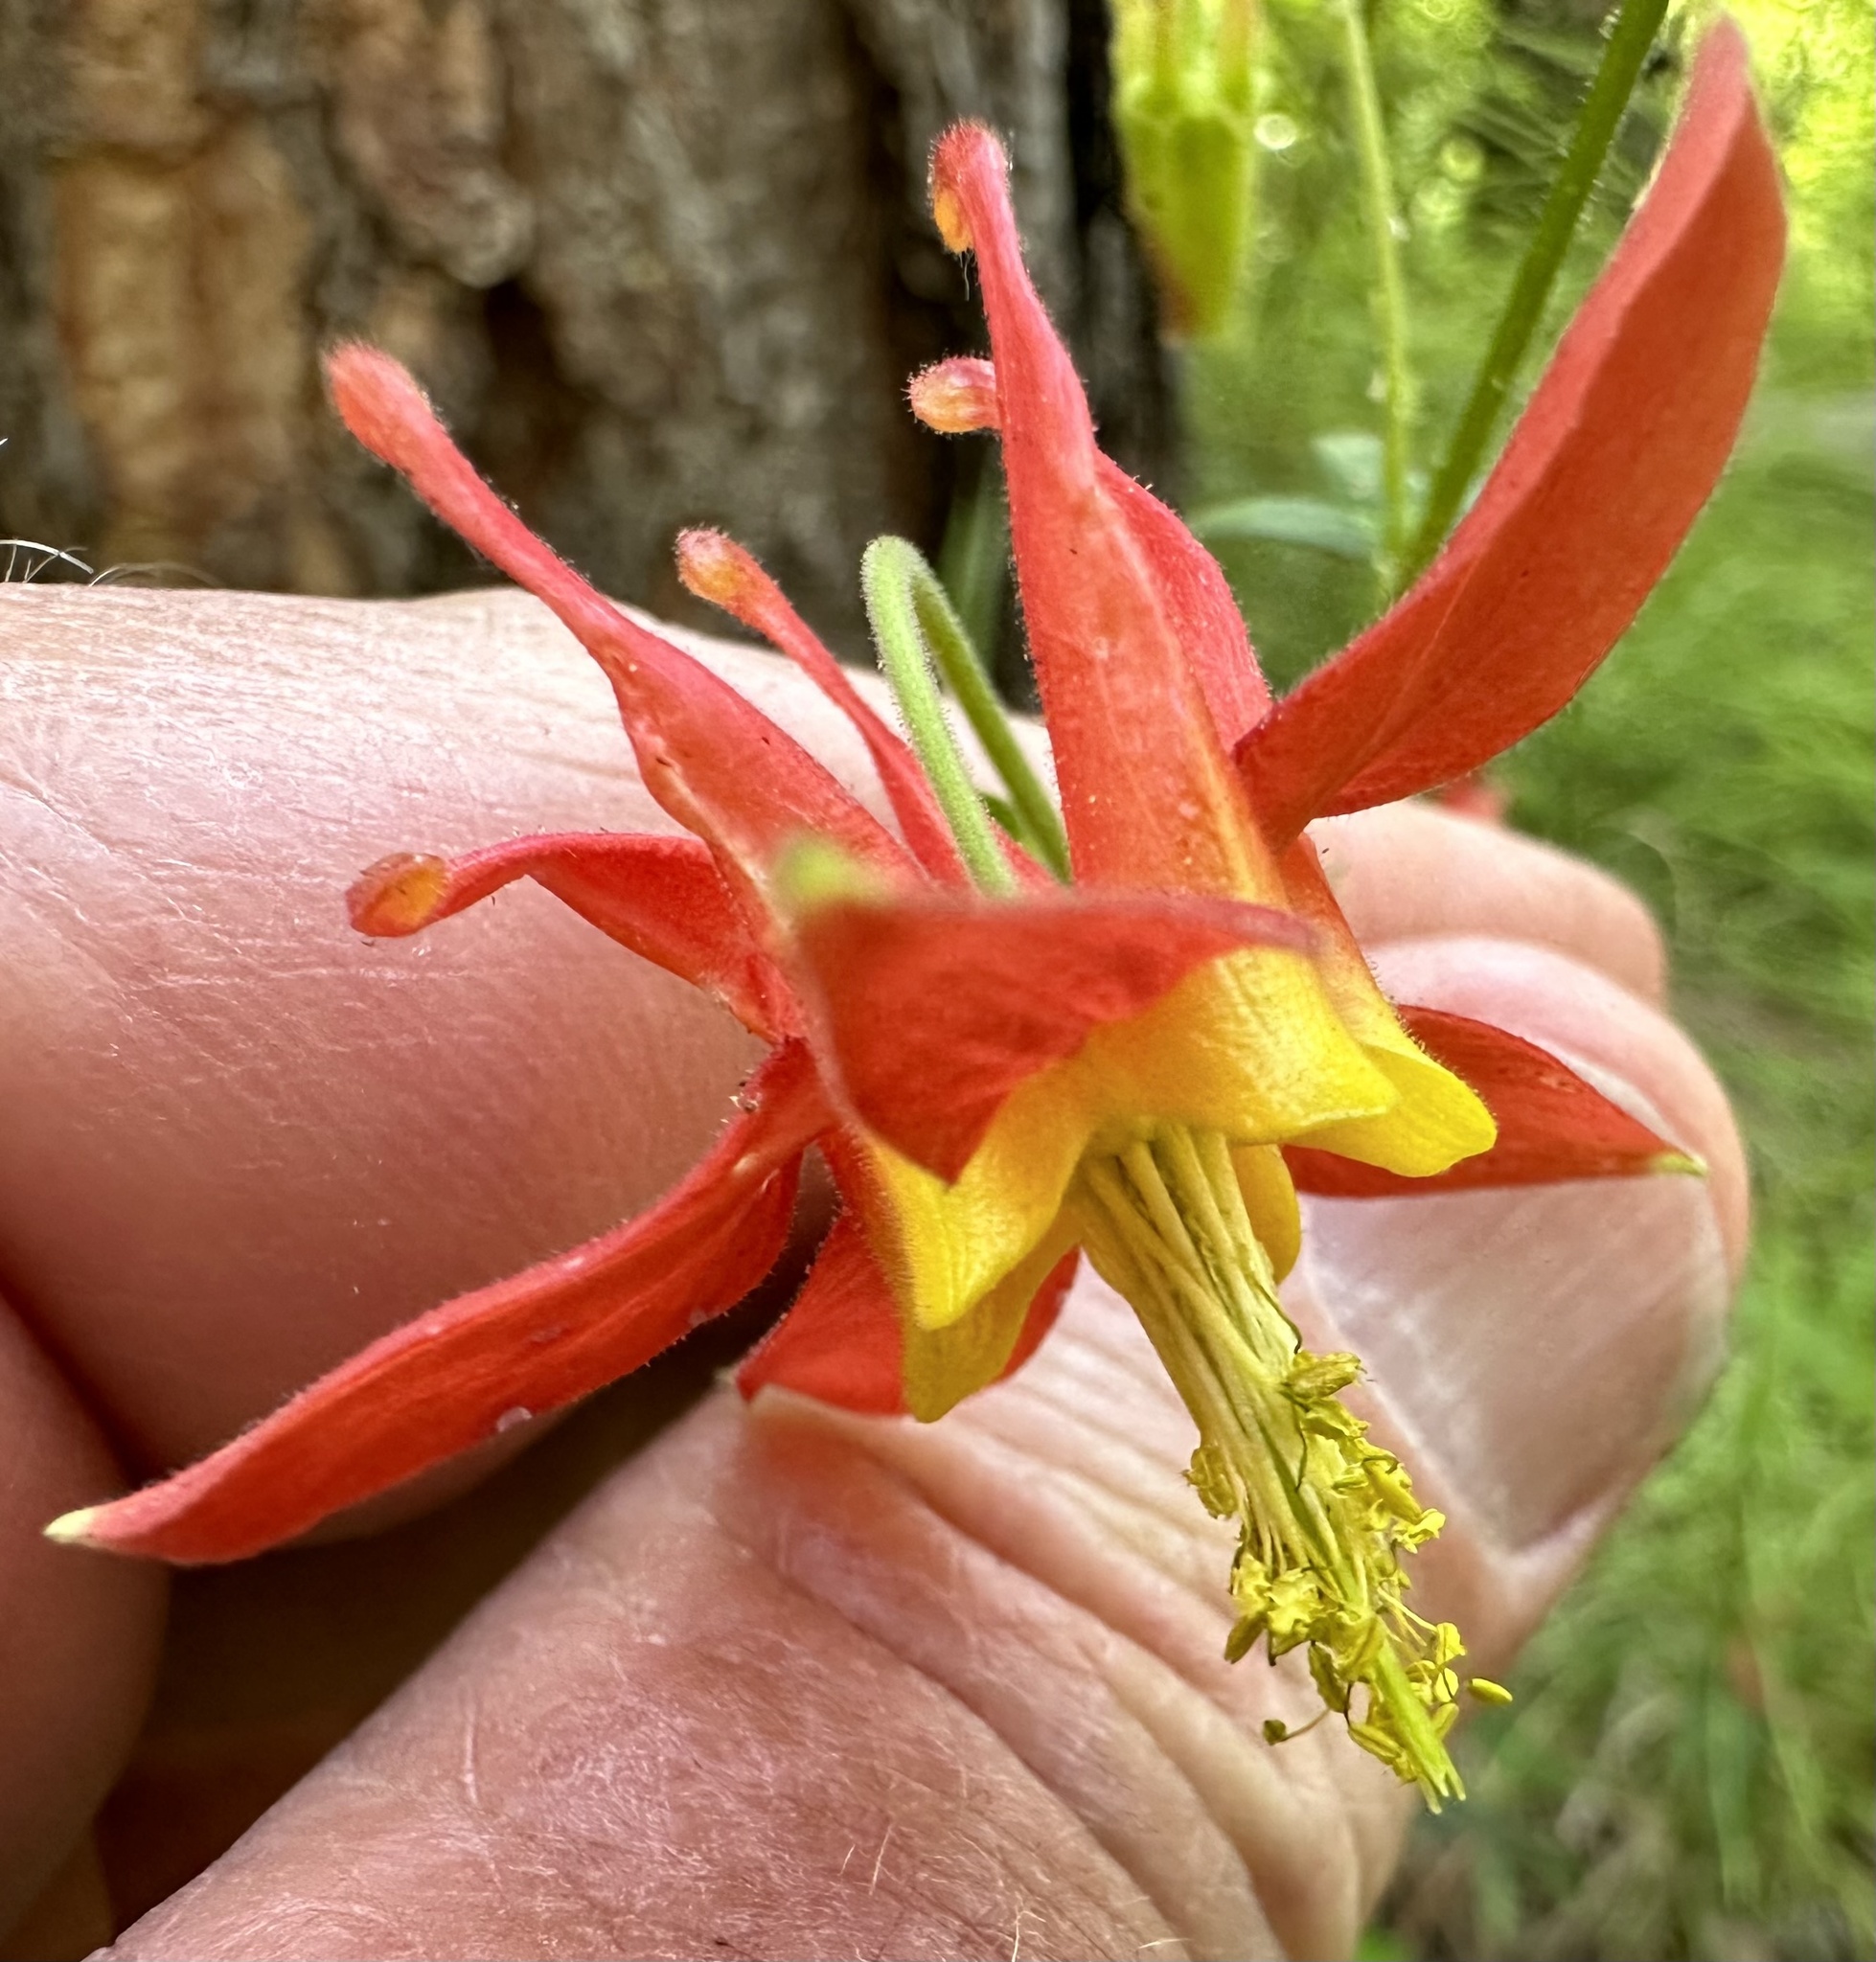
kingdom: Plantae
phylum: Tracheophyta
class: Magnoliopsida
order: Ranunculales
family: Ranunculaceae
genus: Aquilegia
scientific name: Aquilegia formosa
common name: Sitka columbine
